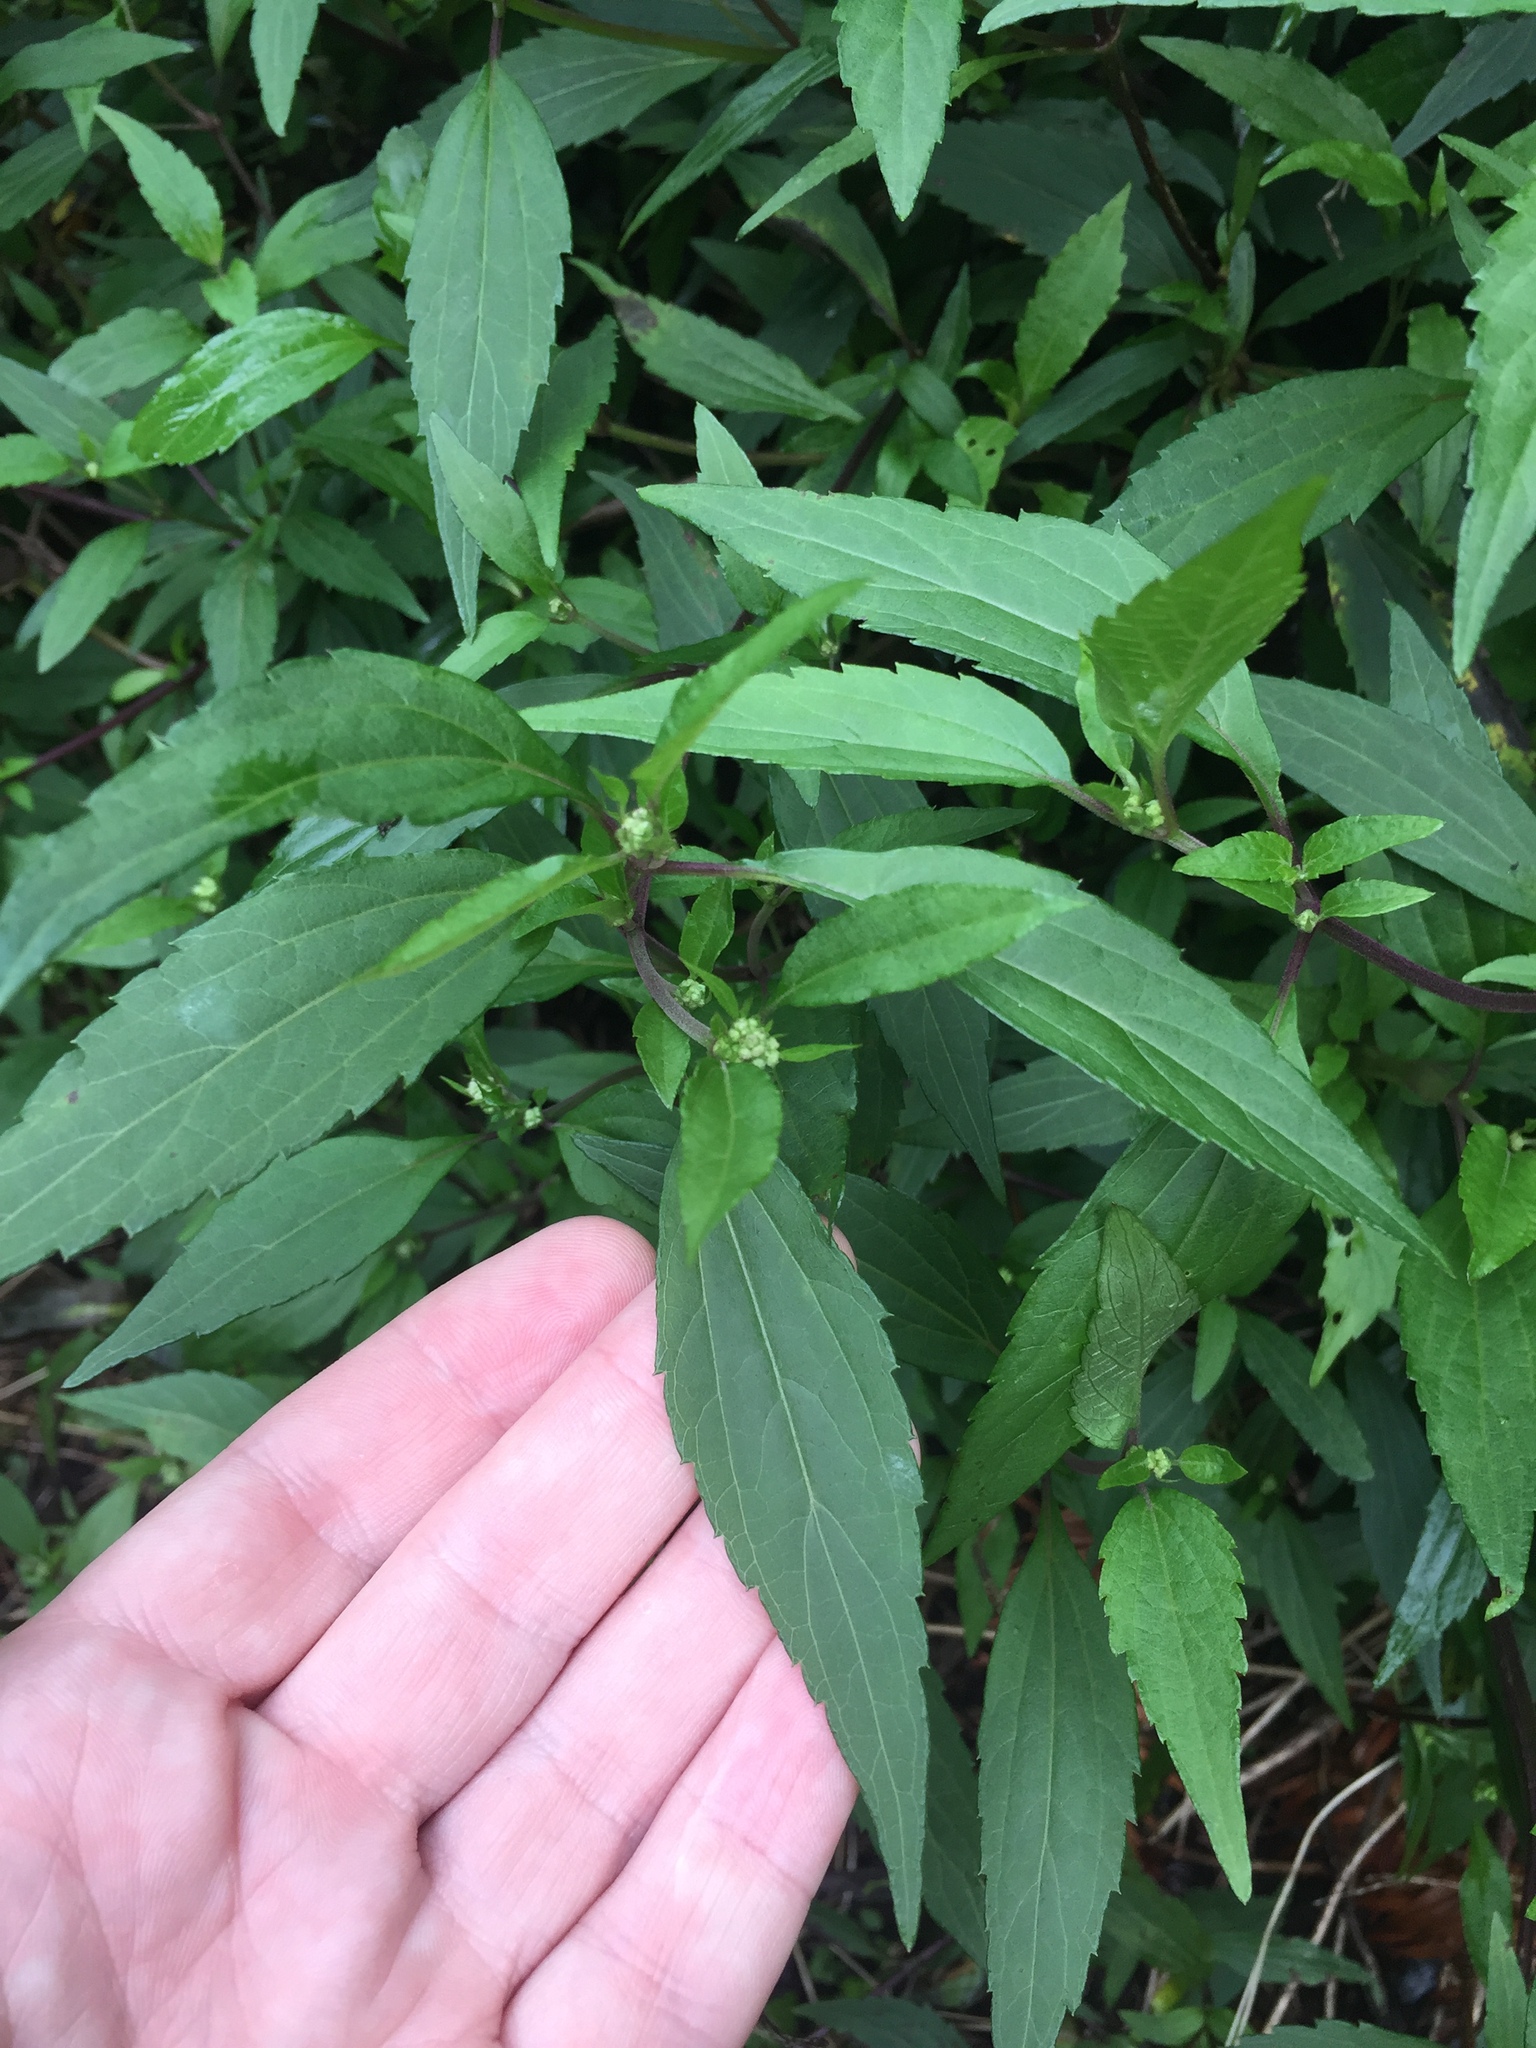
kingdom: Plantae
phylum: Tracheophyta
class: Magnoliopsida
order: Asterales
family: Asteraceae
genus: Ageratina
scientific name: Ageratina riparia
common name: Creeping croftonweed
